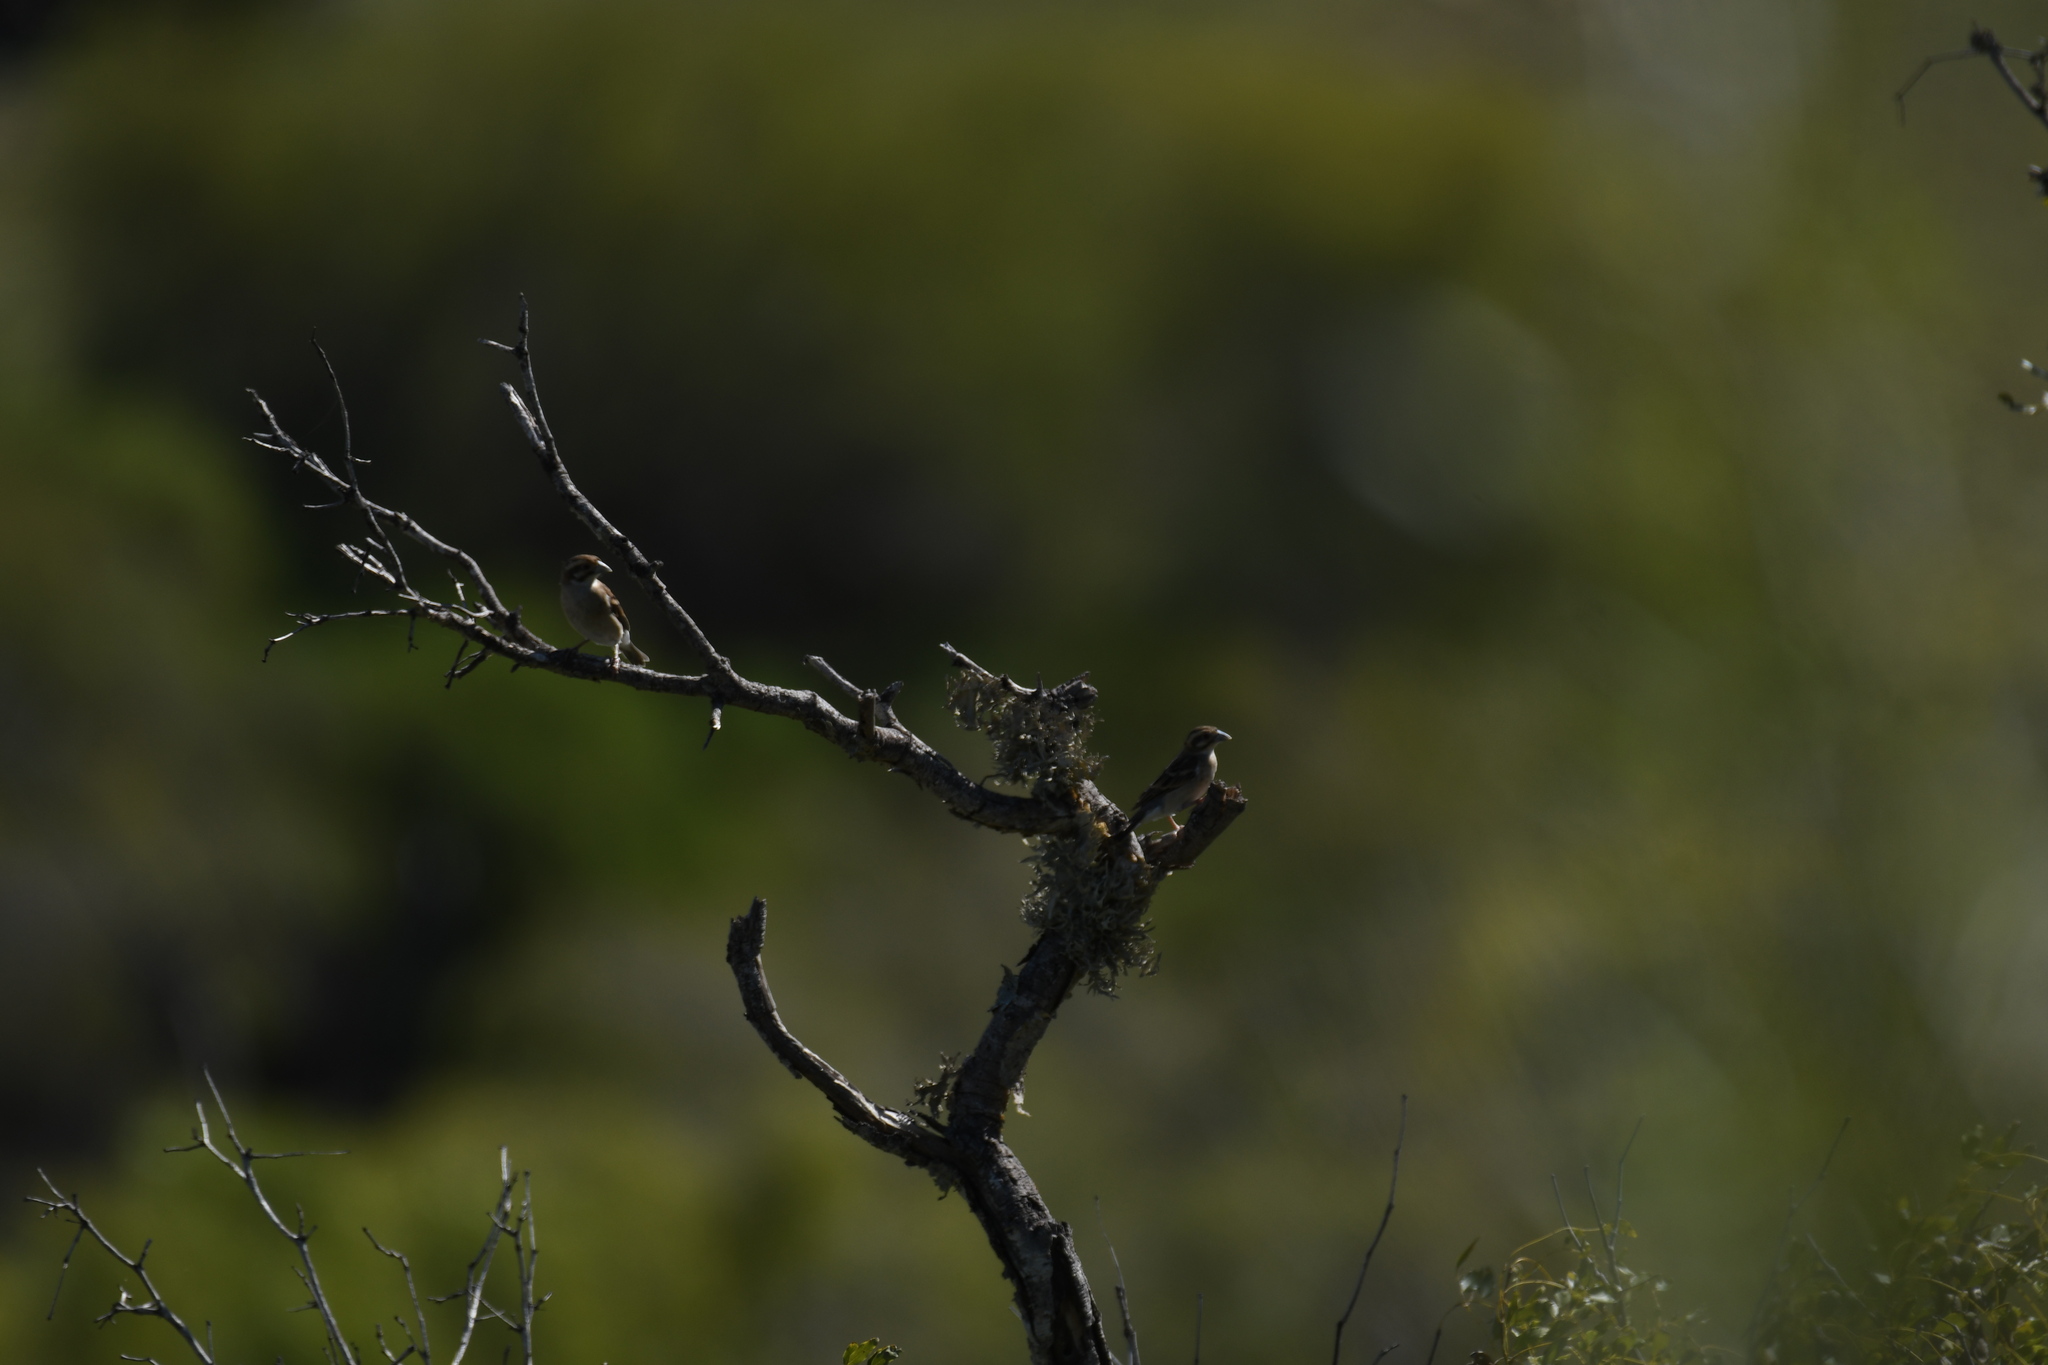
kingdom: Animalia
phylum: Chordata
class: Aves
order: Passeriformes
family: Ploceidae
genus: Ploceus
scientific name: Ploceus sakalava
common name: Sakalava weaver
